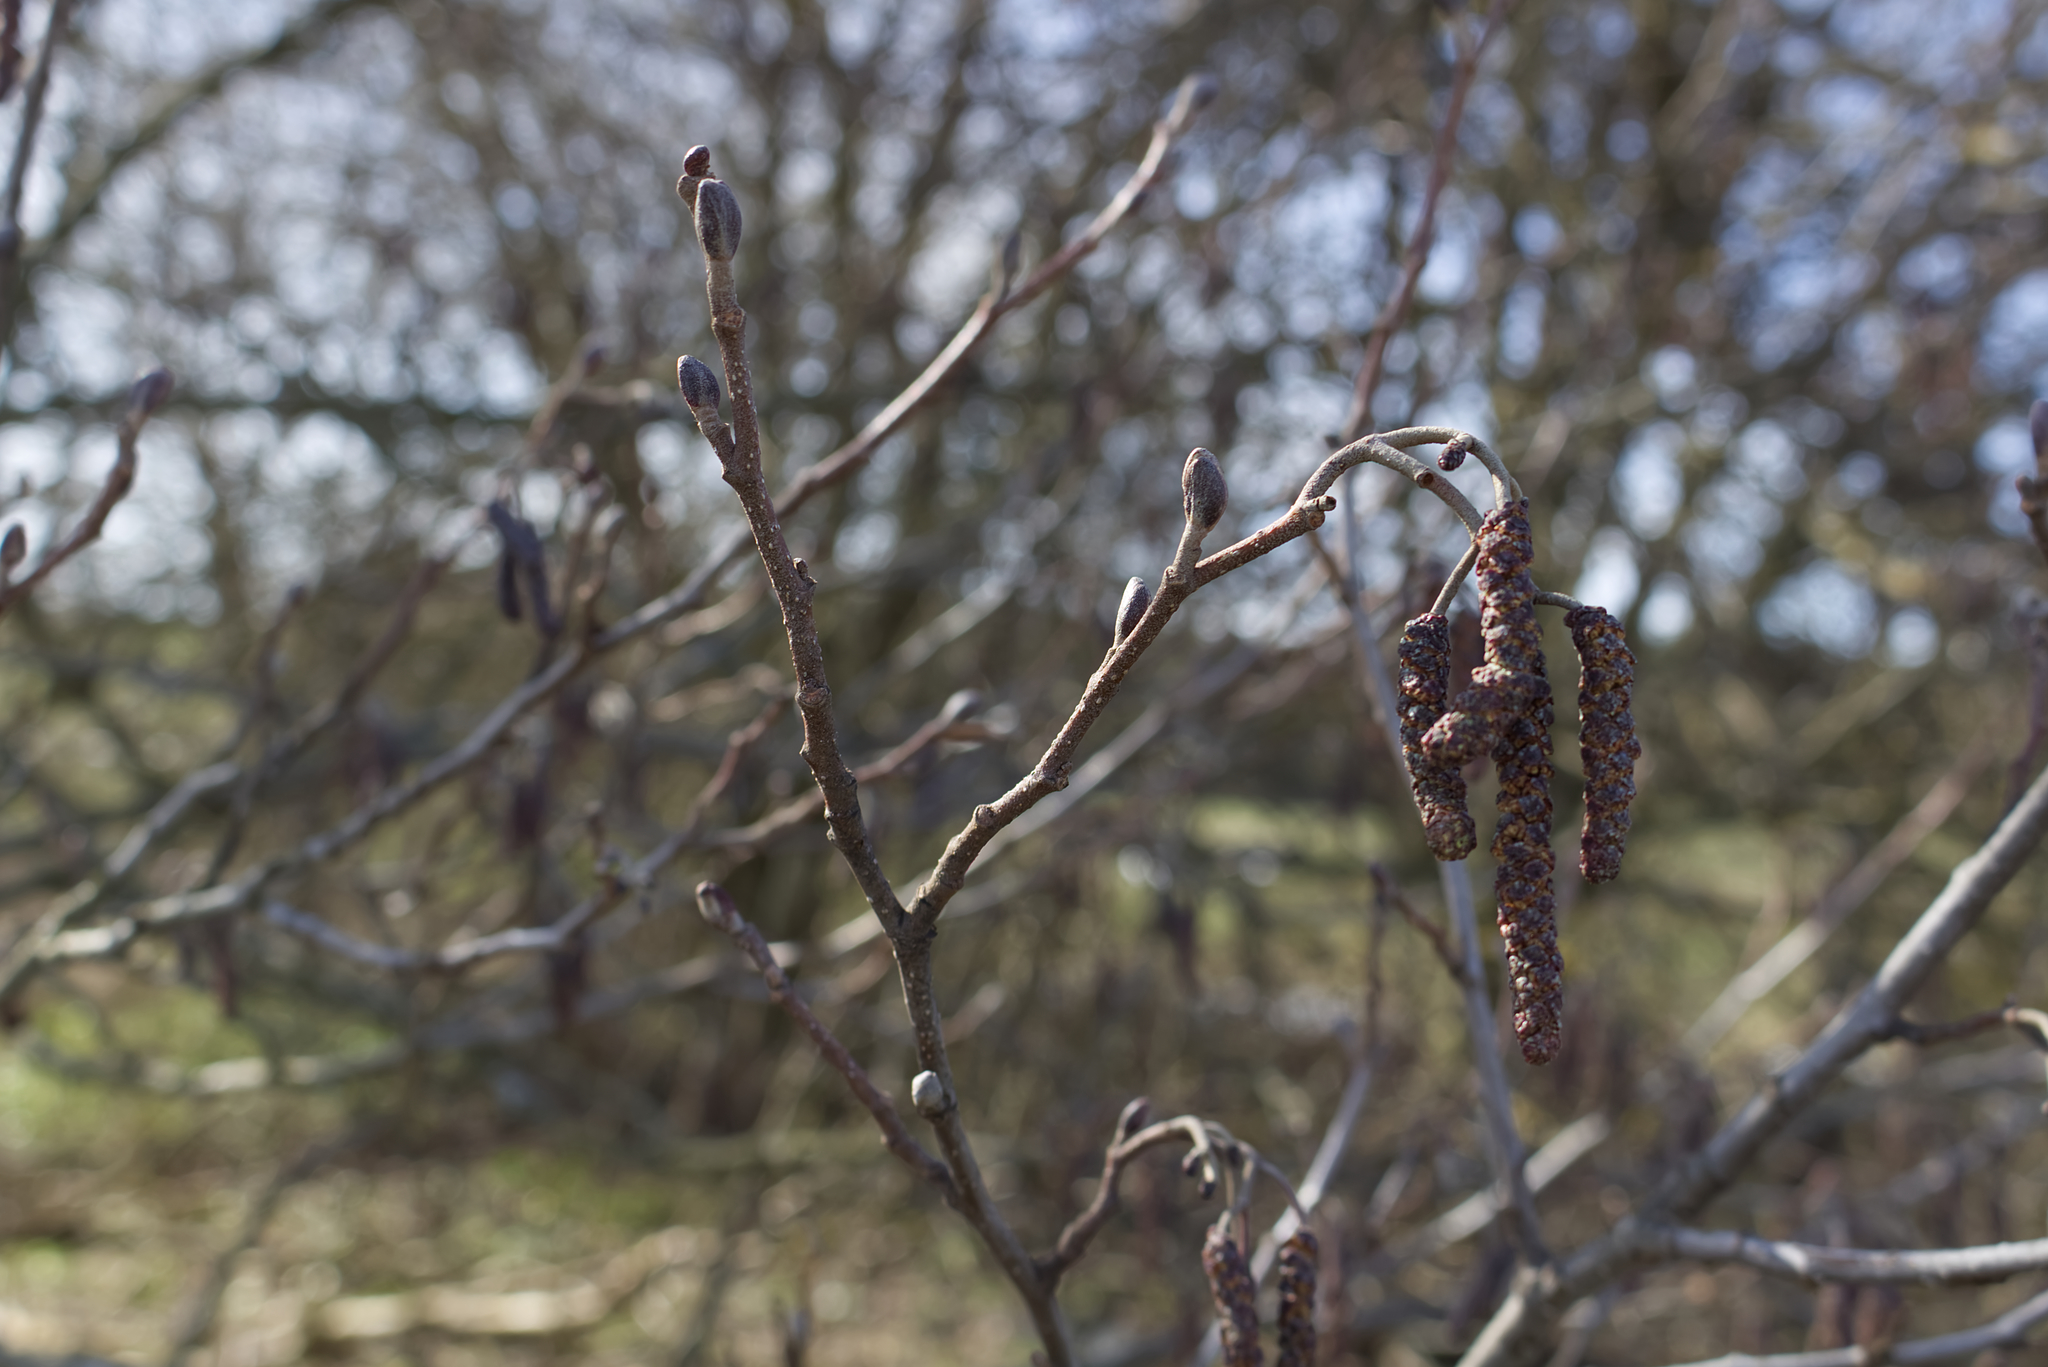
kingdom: Plantae
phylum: Tracheophyta
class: Magnoliopsida
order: Fagales
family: Betulaceae
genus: Alnus
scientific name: Alnus glutinosa
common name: Black alder
